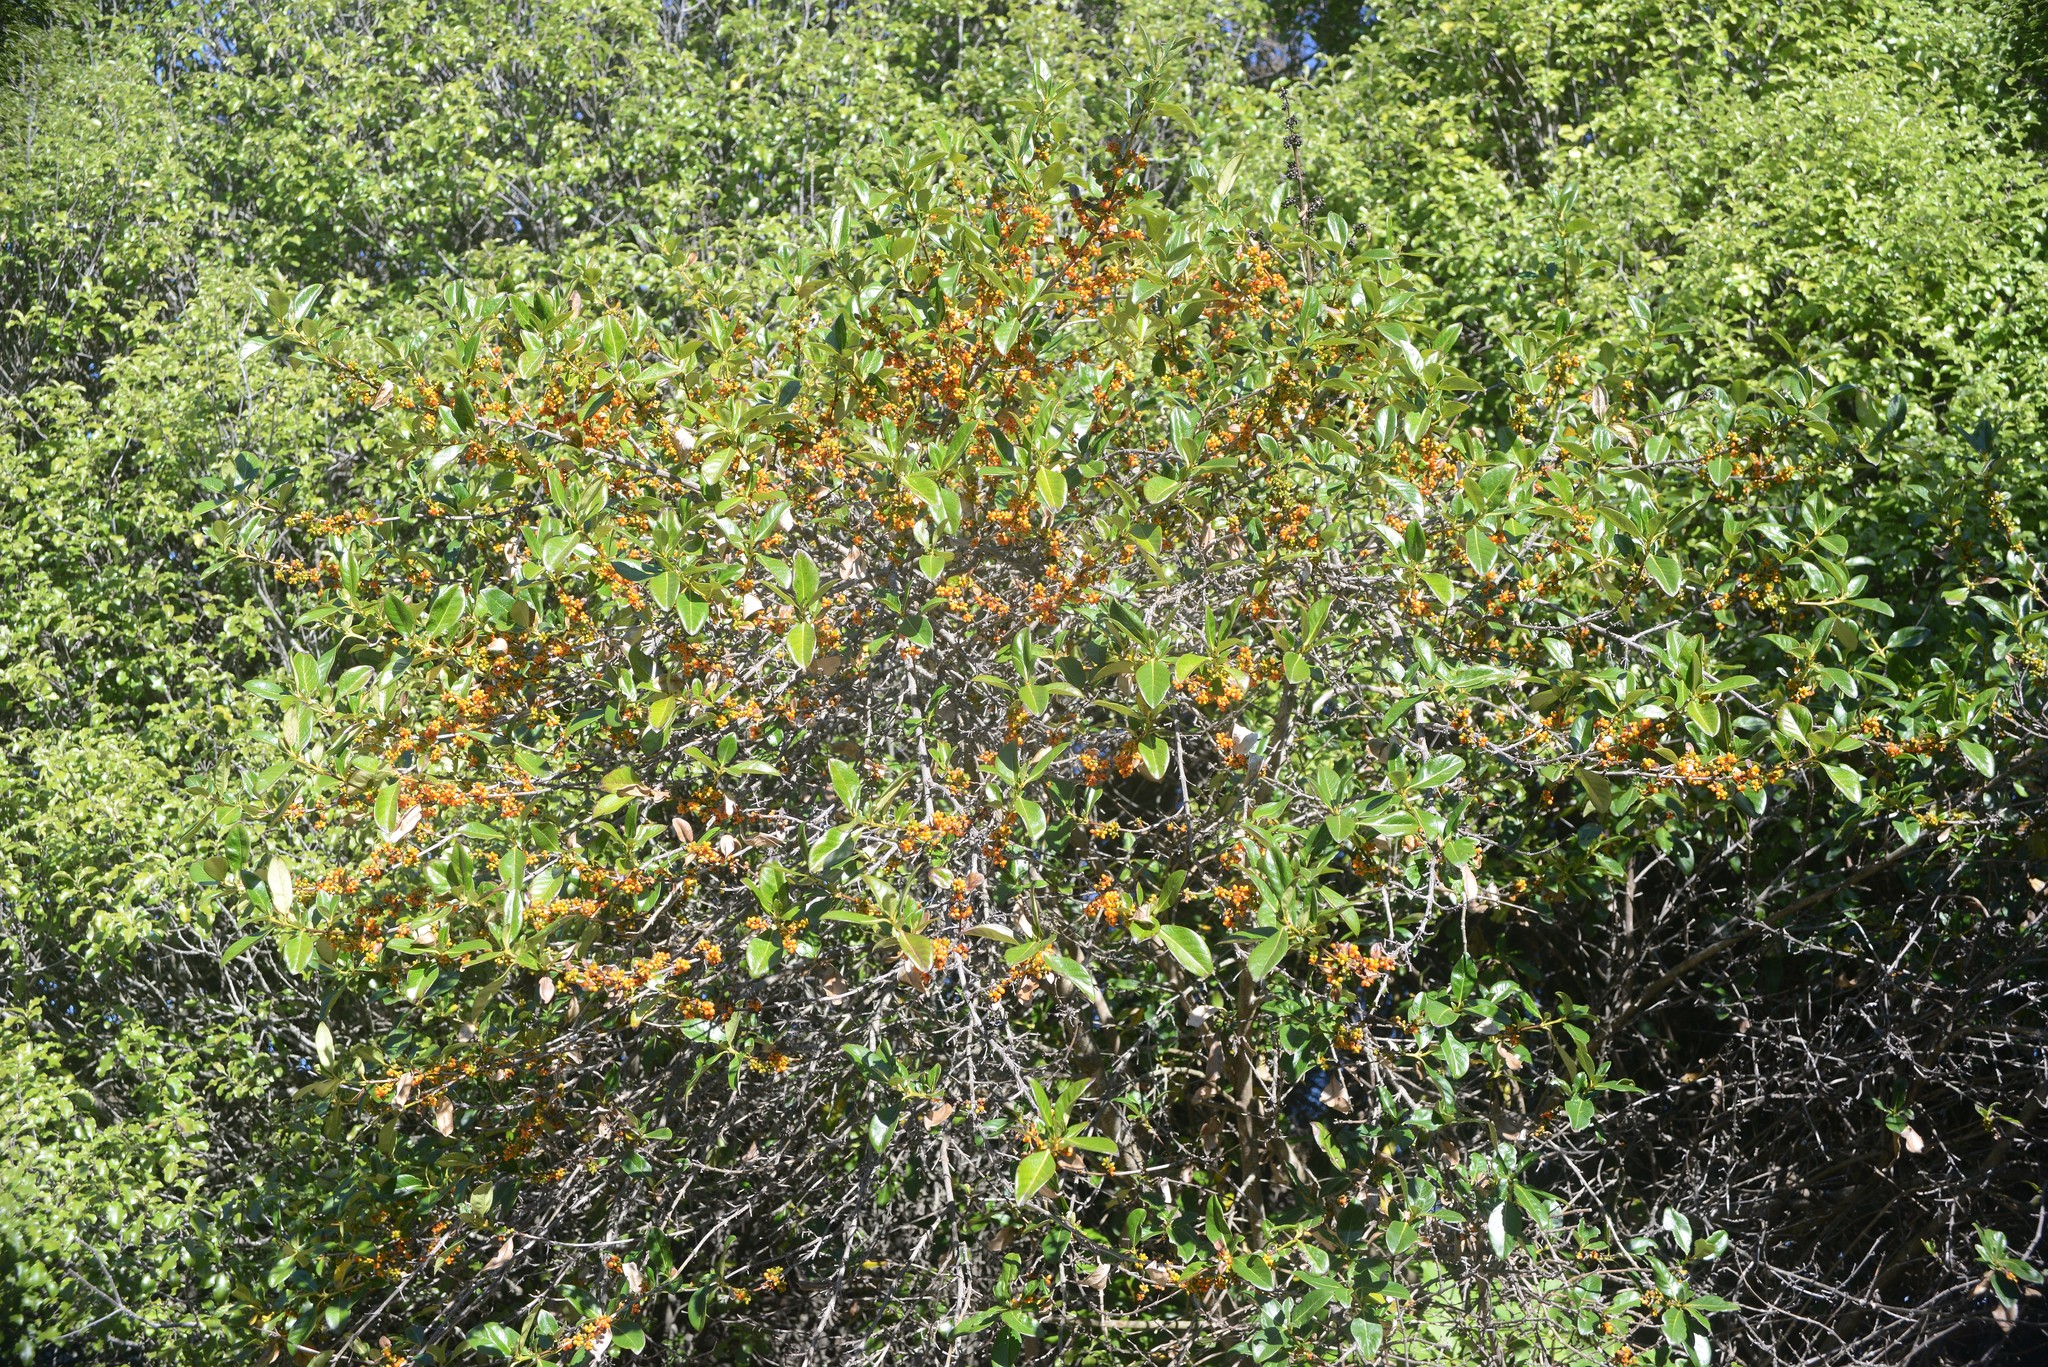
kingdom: Plantae
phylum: Tracheophyta
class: Magnoliopsida
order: Gentianales
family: Rubiaceae
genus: Coprosma
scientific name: Coprosma robusta
